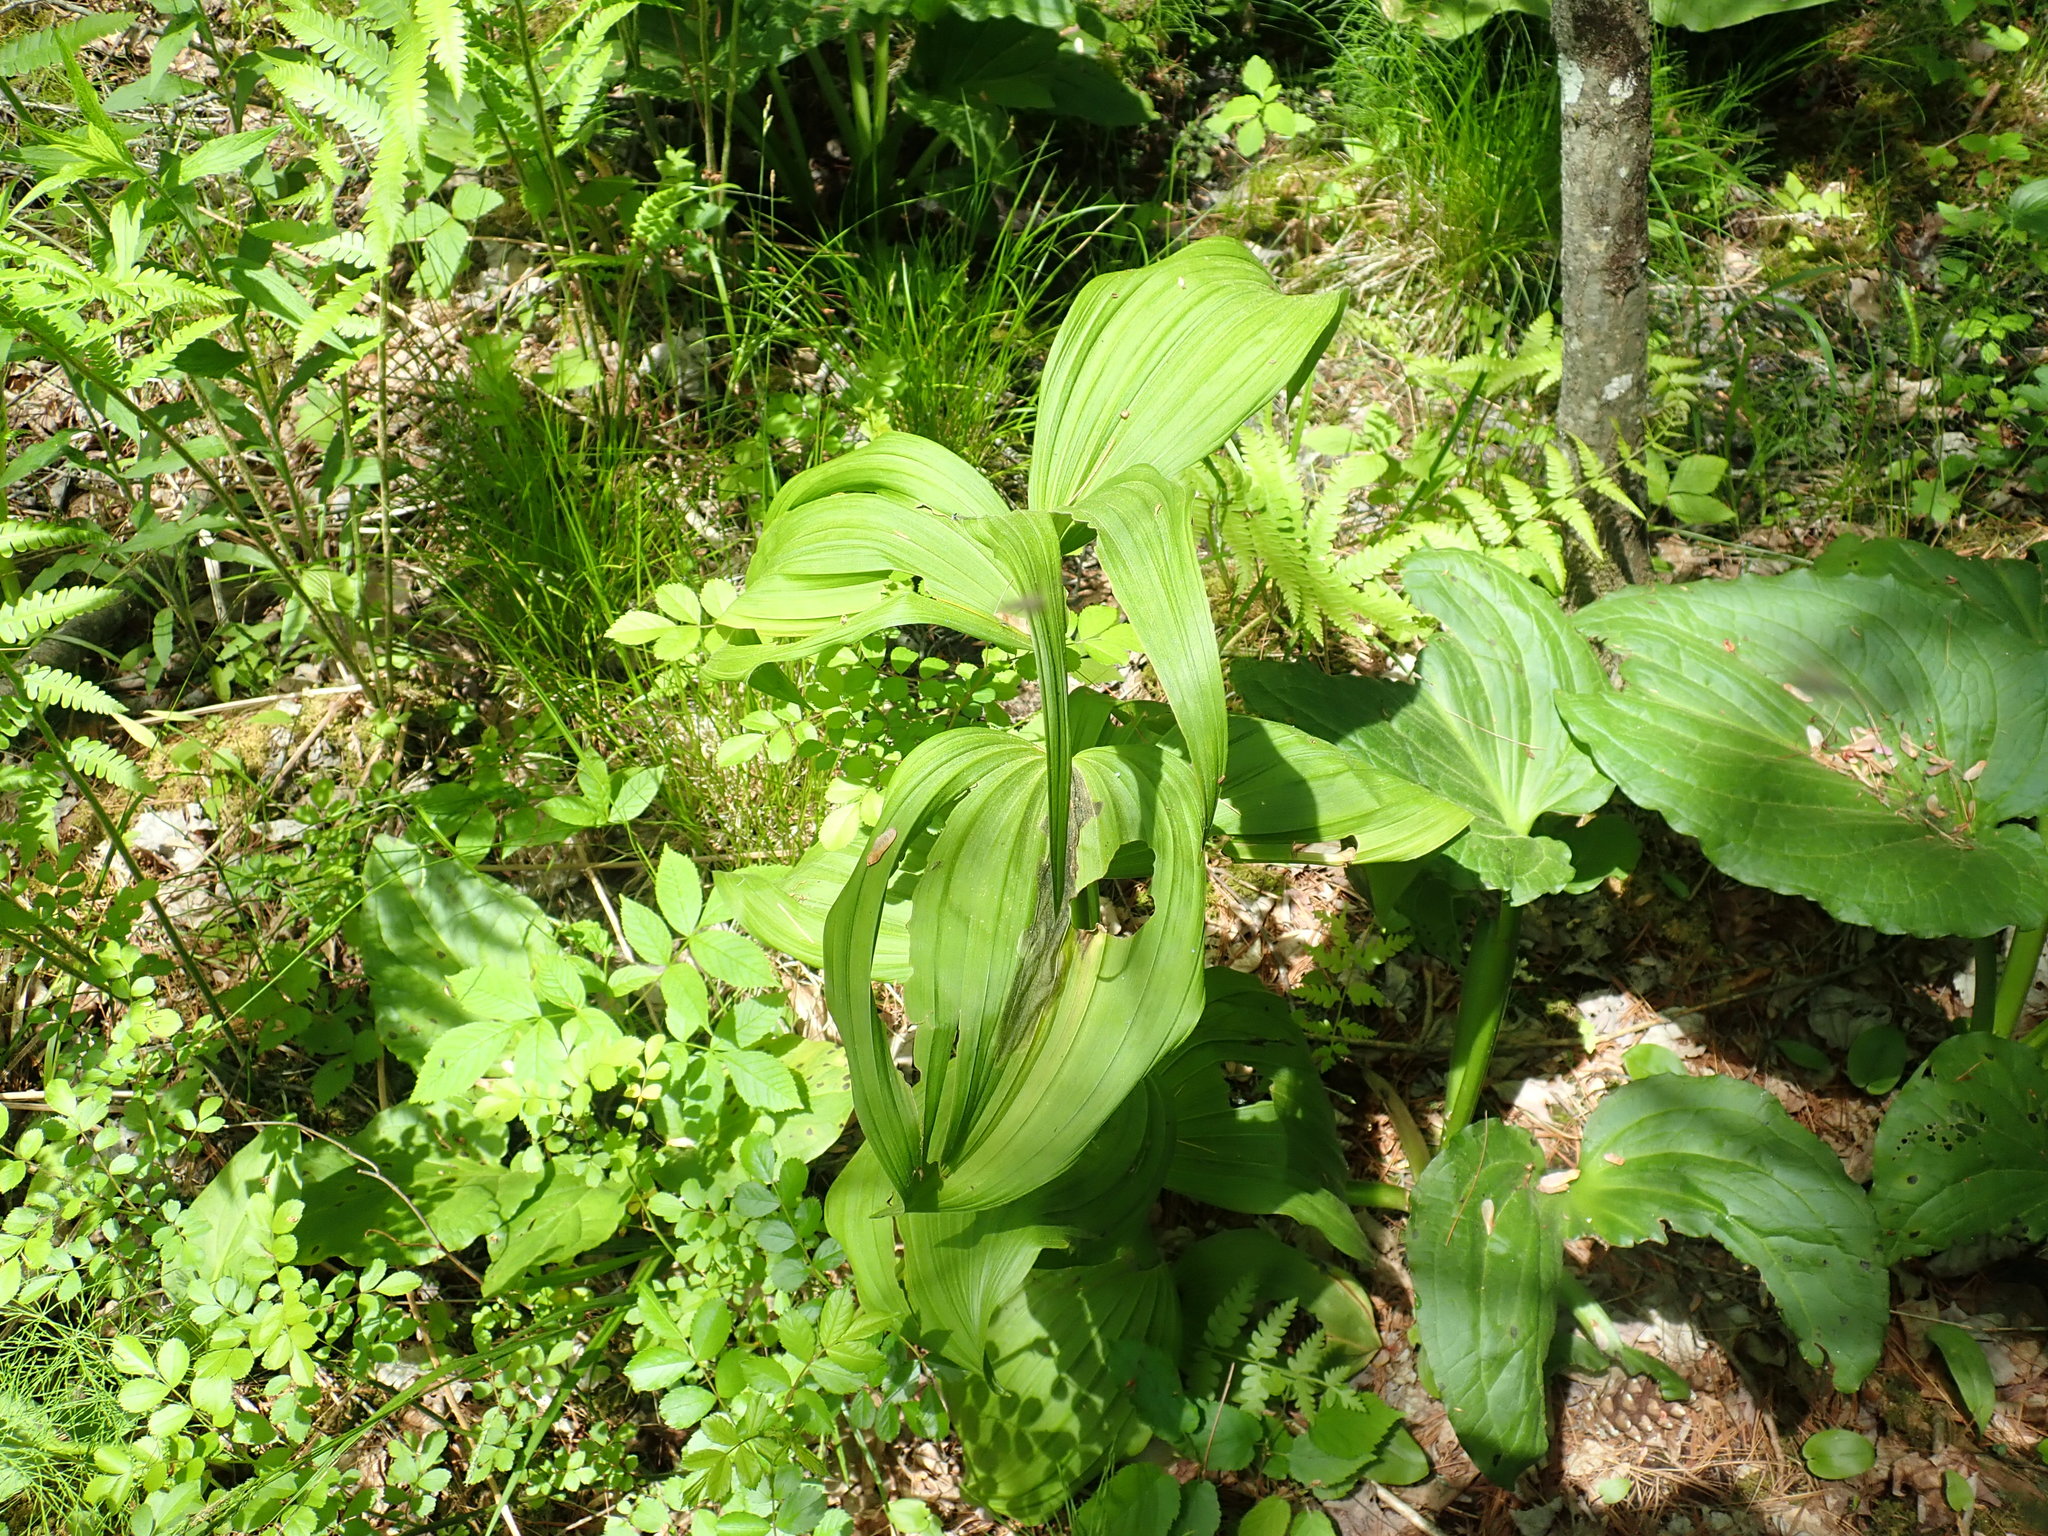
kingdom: Plantae
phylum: Tracheophyta
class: Liliopsida
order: Liliales
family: Melanthiaceae
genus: Veratrum
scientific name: Veratrum viride
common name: American false hellebore
